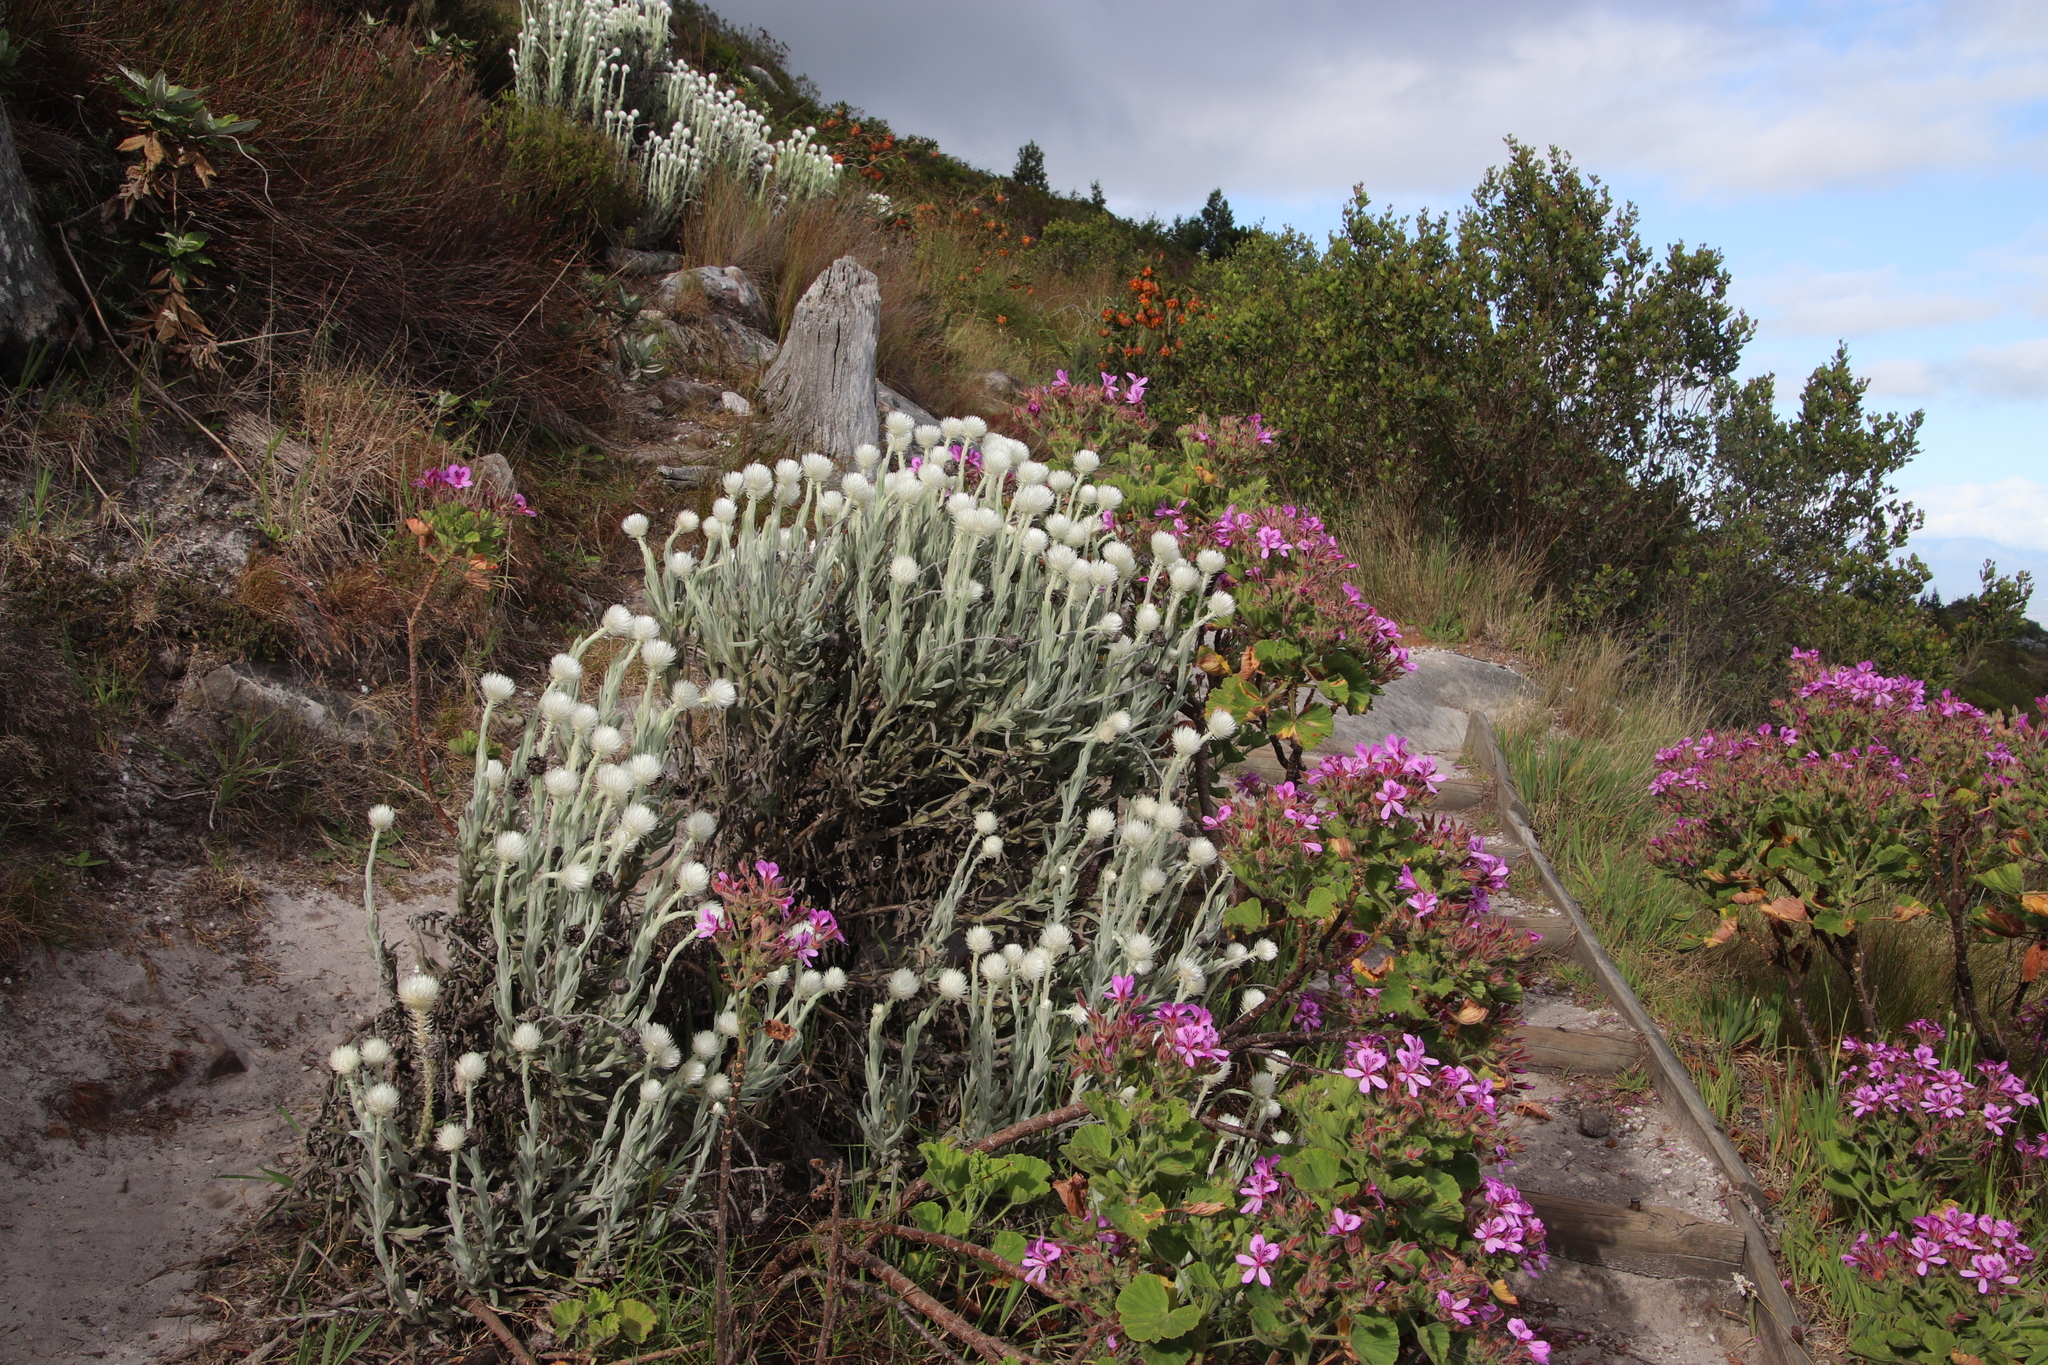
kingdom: Plantae
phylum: Tracheophyta
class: Magnoliopsida
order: Asterales
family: Asteraceae
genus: Syncarpha
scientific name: Syncarpha vestita
